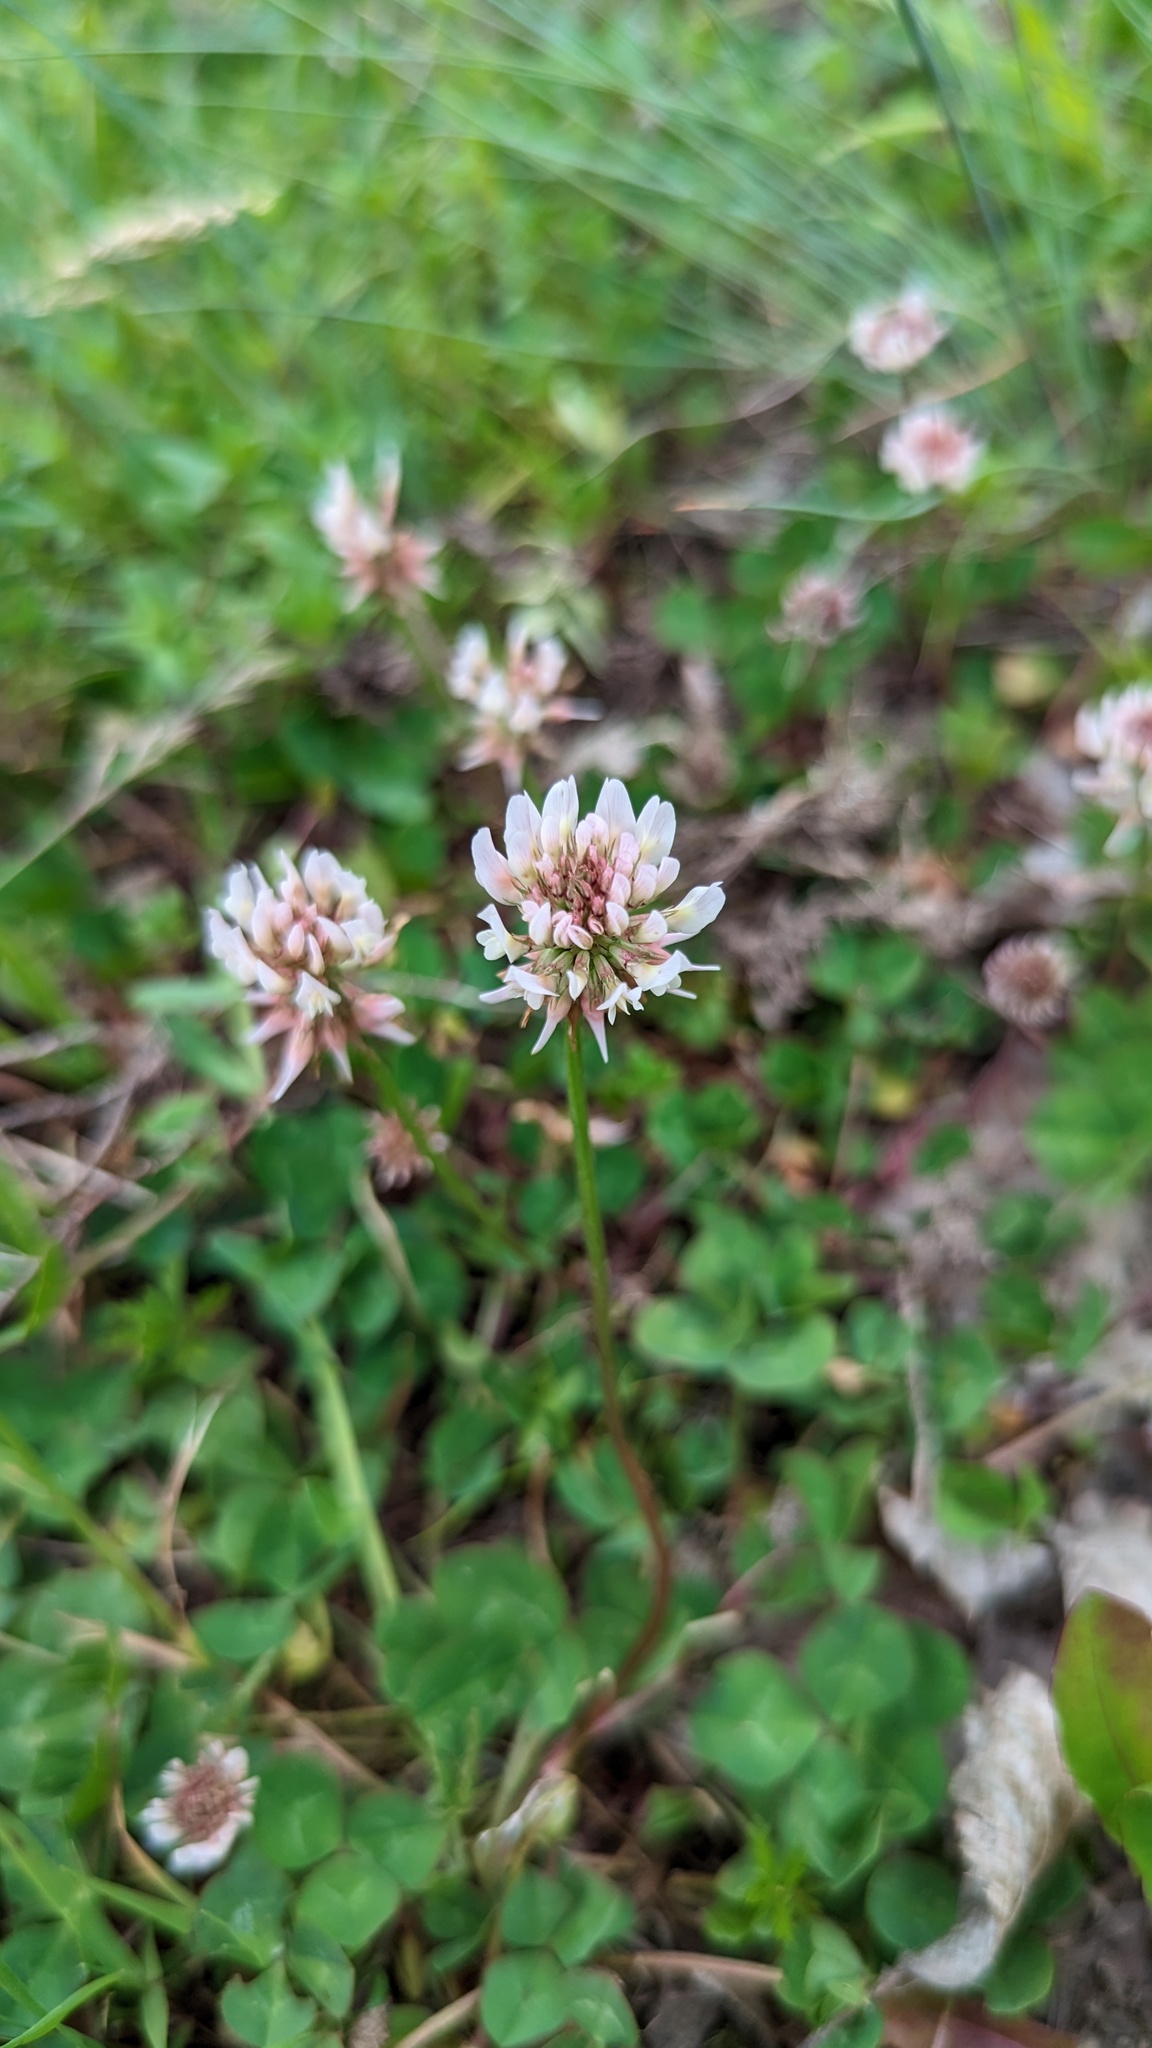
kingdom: Plantae
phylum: Tracheophyta
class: Magnoliopsida
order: Fabales
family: Fabaceae
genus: Trifolium
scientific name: Trifolium repens
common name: White clover
